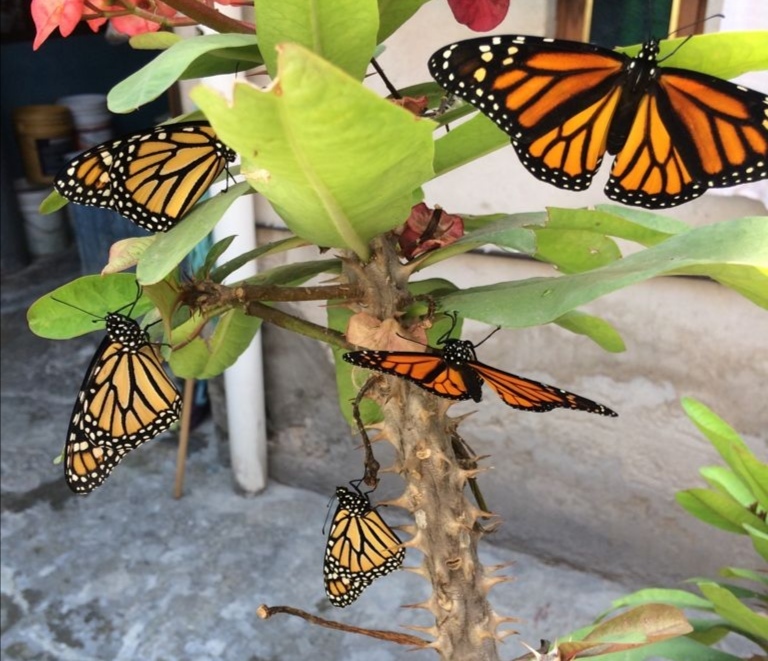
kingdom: Animalia
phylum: Arthropoda
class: Insecta
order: Lepidoptera
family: Nymphalidae
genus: Danaus
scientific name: Danaus plexippus
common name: Monarch
